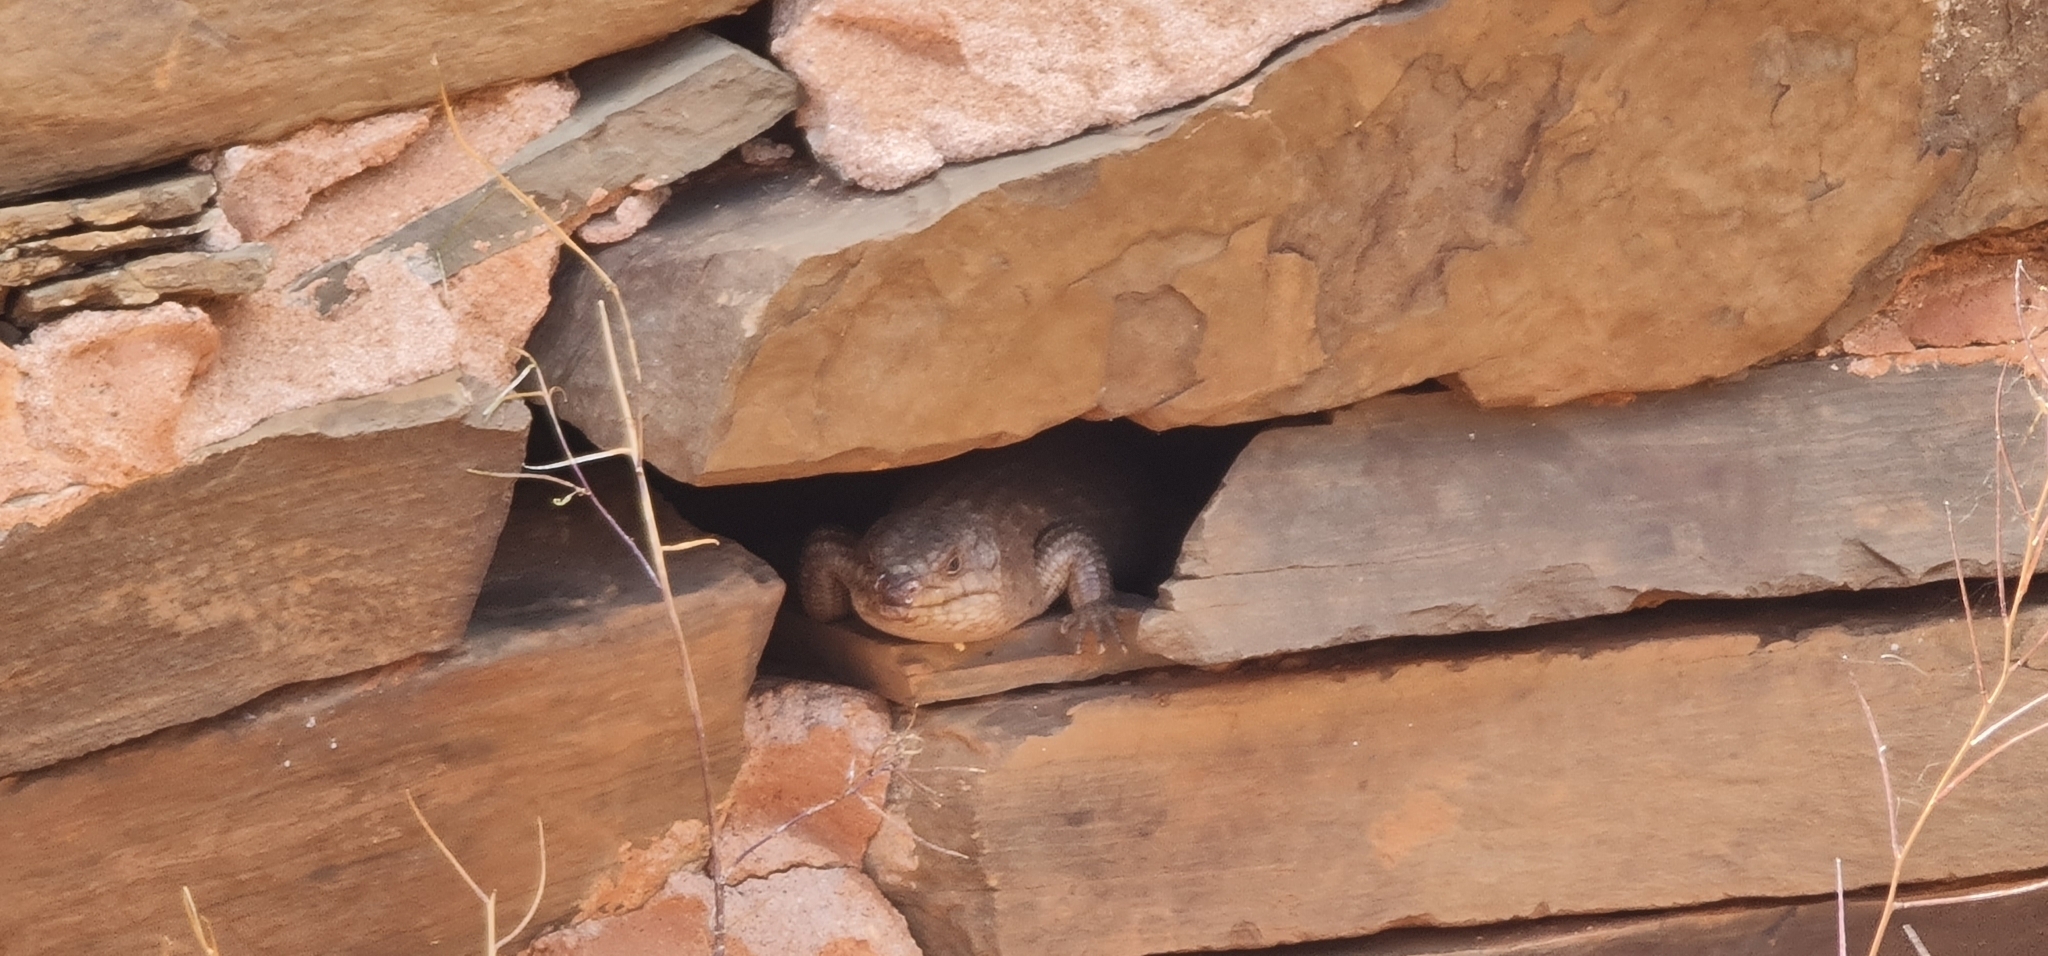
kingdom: Animalia
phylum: Chordata
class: Squamata
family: Scincidae
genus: Egernia
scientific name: Egernia stokesii
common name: Gidgee skink
